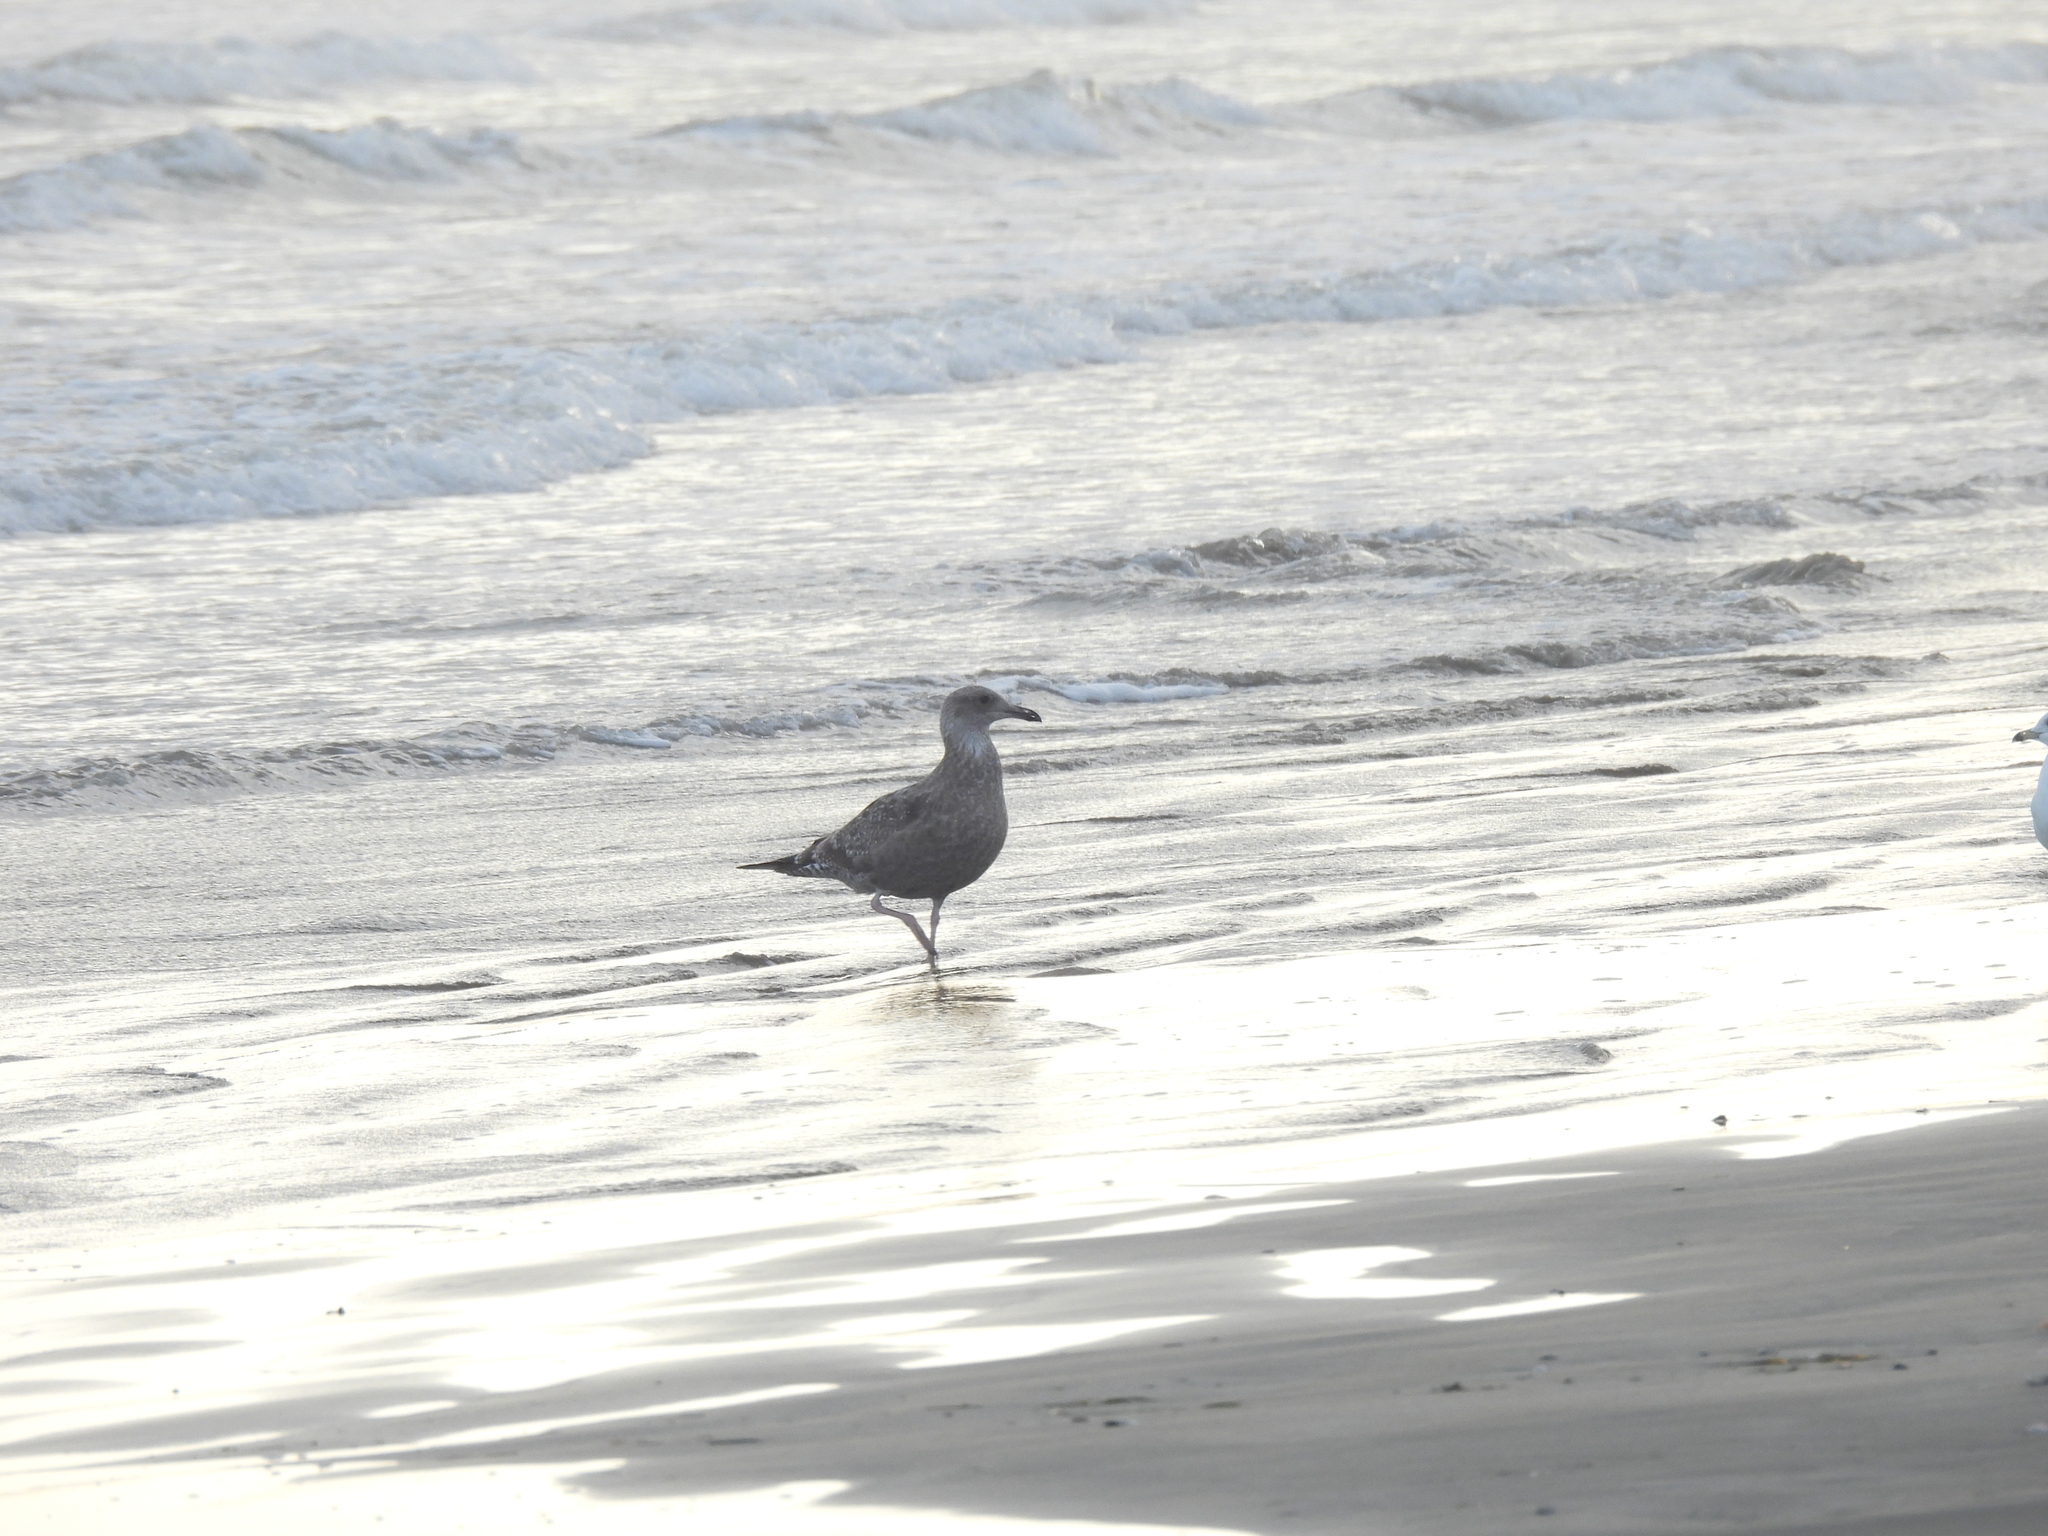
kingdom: Animalia
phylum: Chordata
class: Aves
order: Charadriiformes
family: Laridae
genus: Larus
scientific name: Larus argentatus
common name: Herring gull
